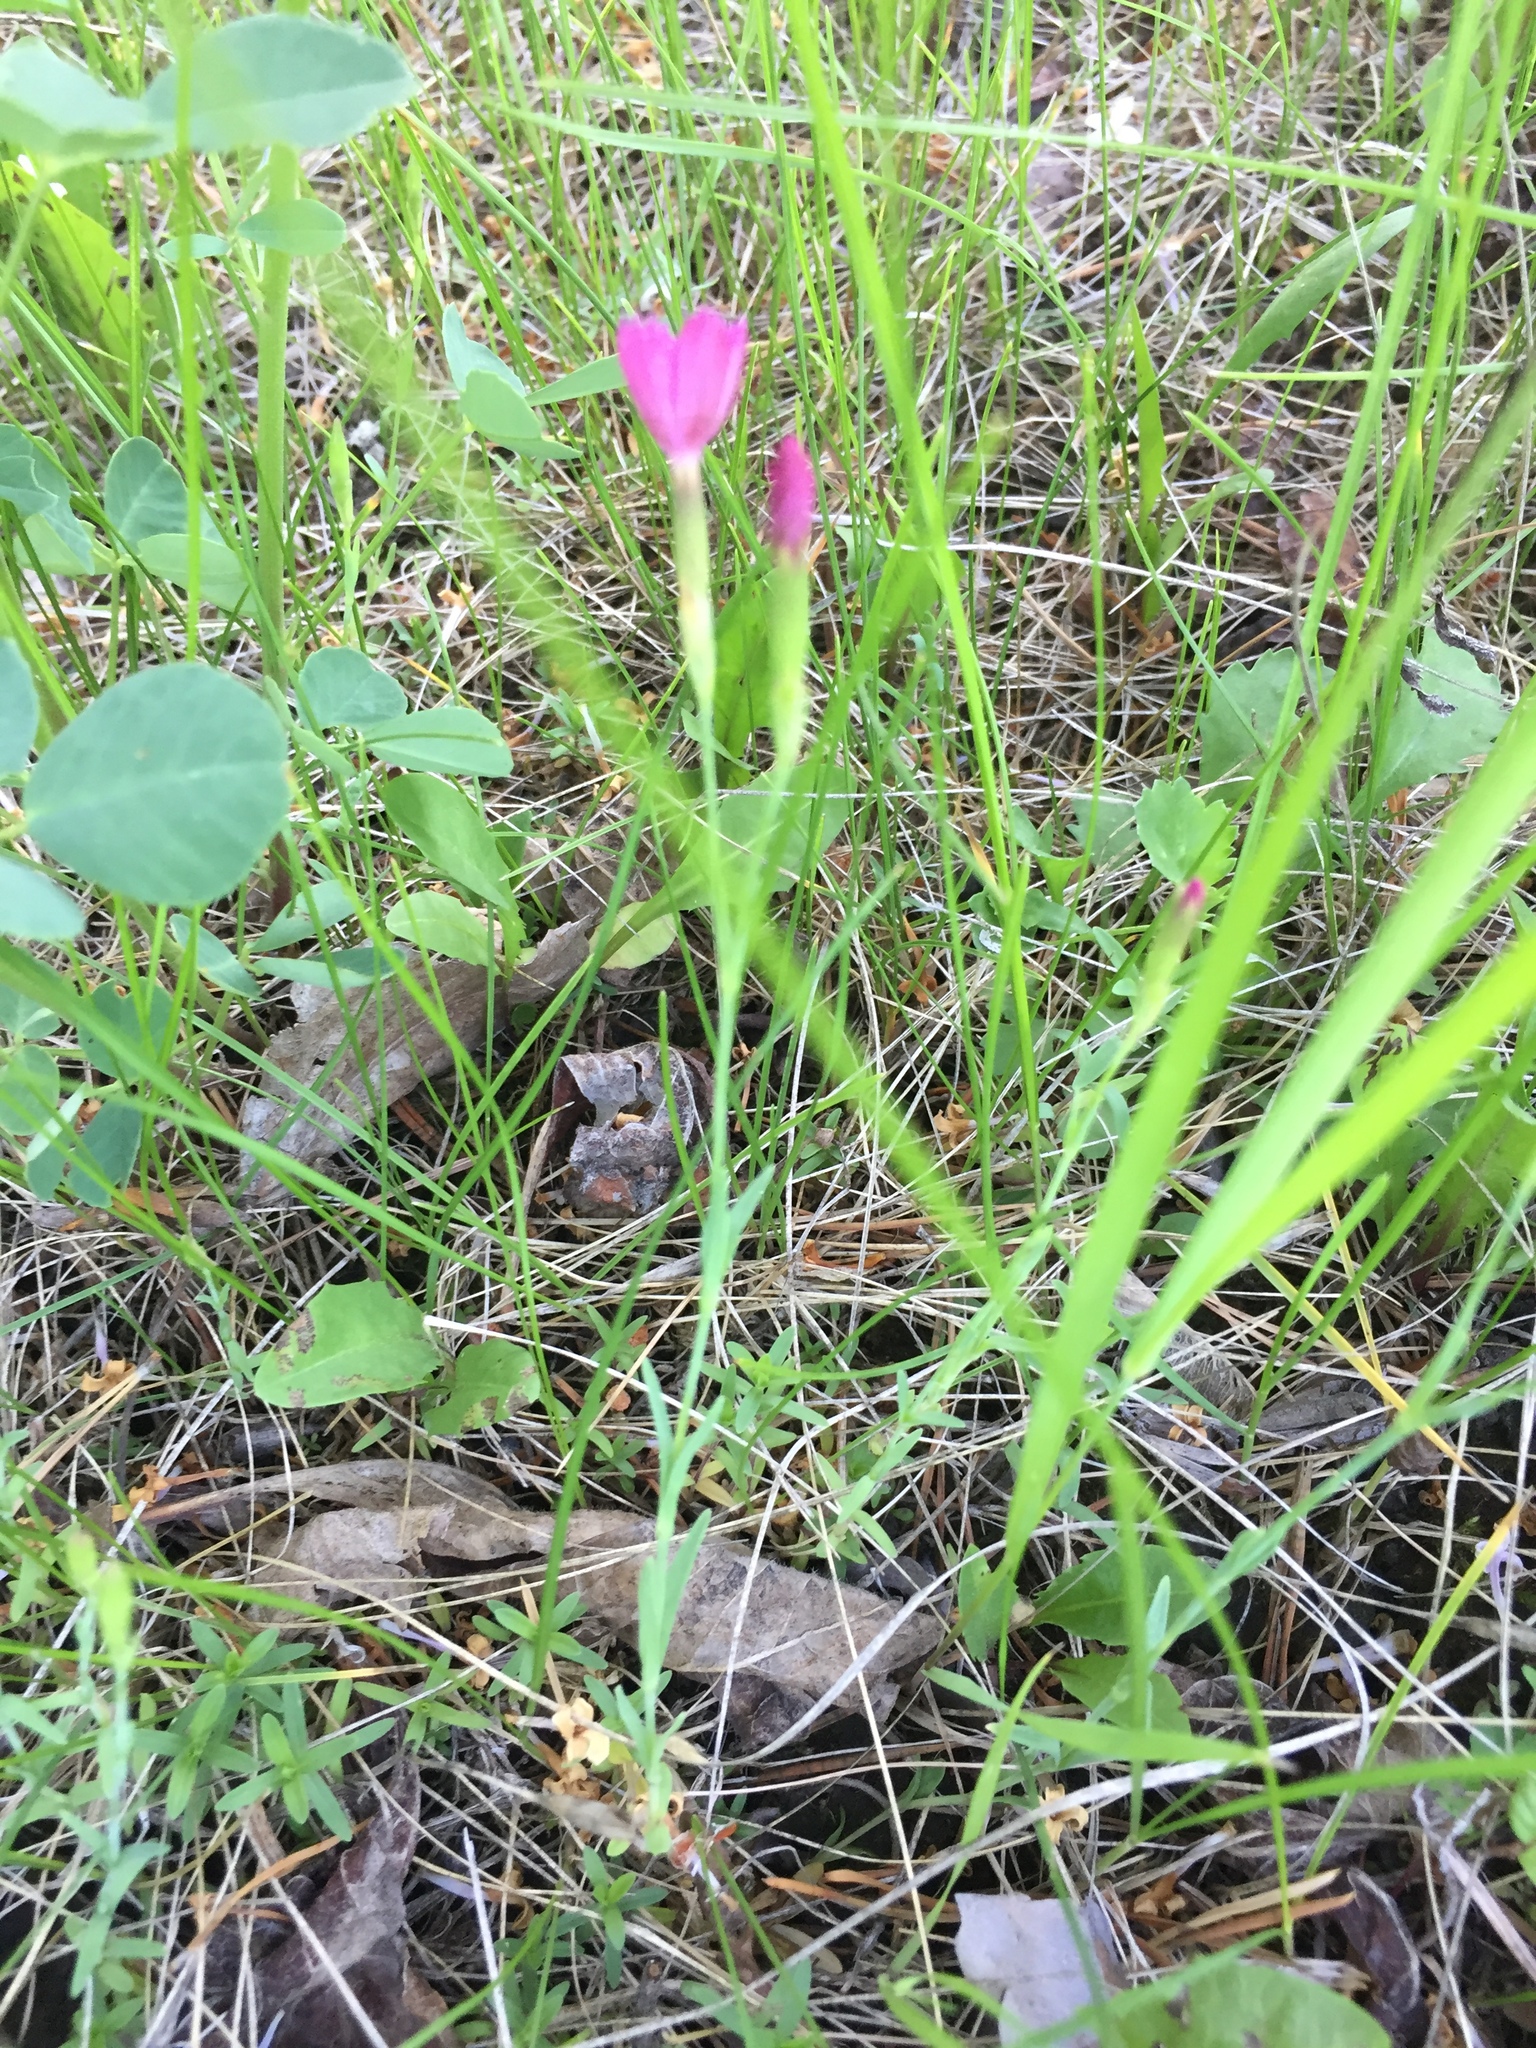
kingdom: Plantae
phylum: Tracheophyta
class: Magnoliopsida
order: Caryophyllales
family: Caryophyllaceae
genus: Dianthus
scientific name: Dianthus deltoides
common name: Maiden pink
